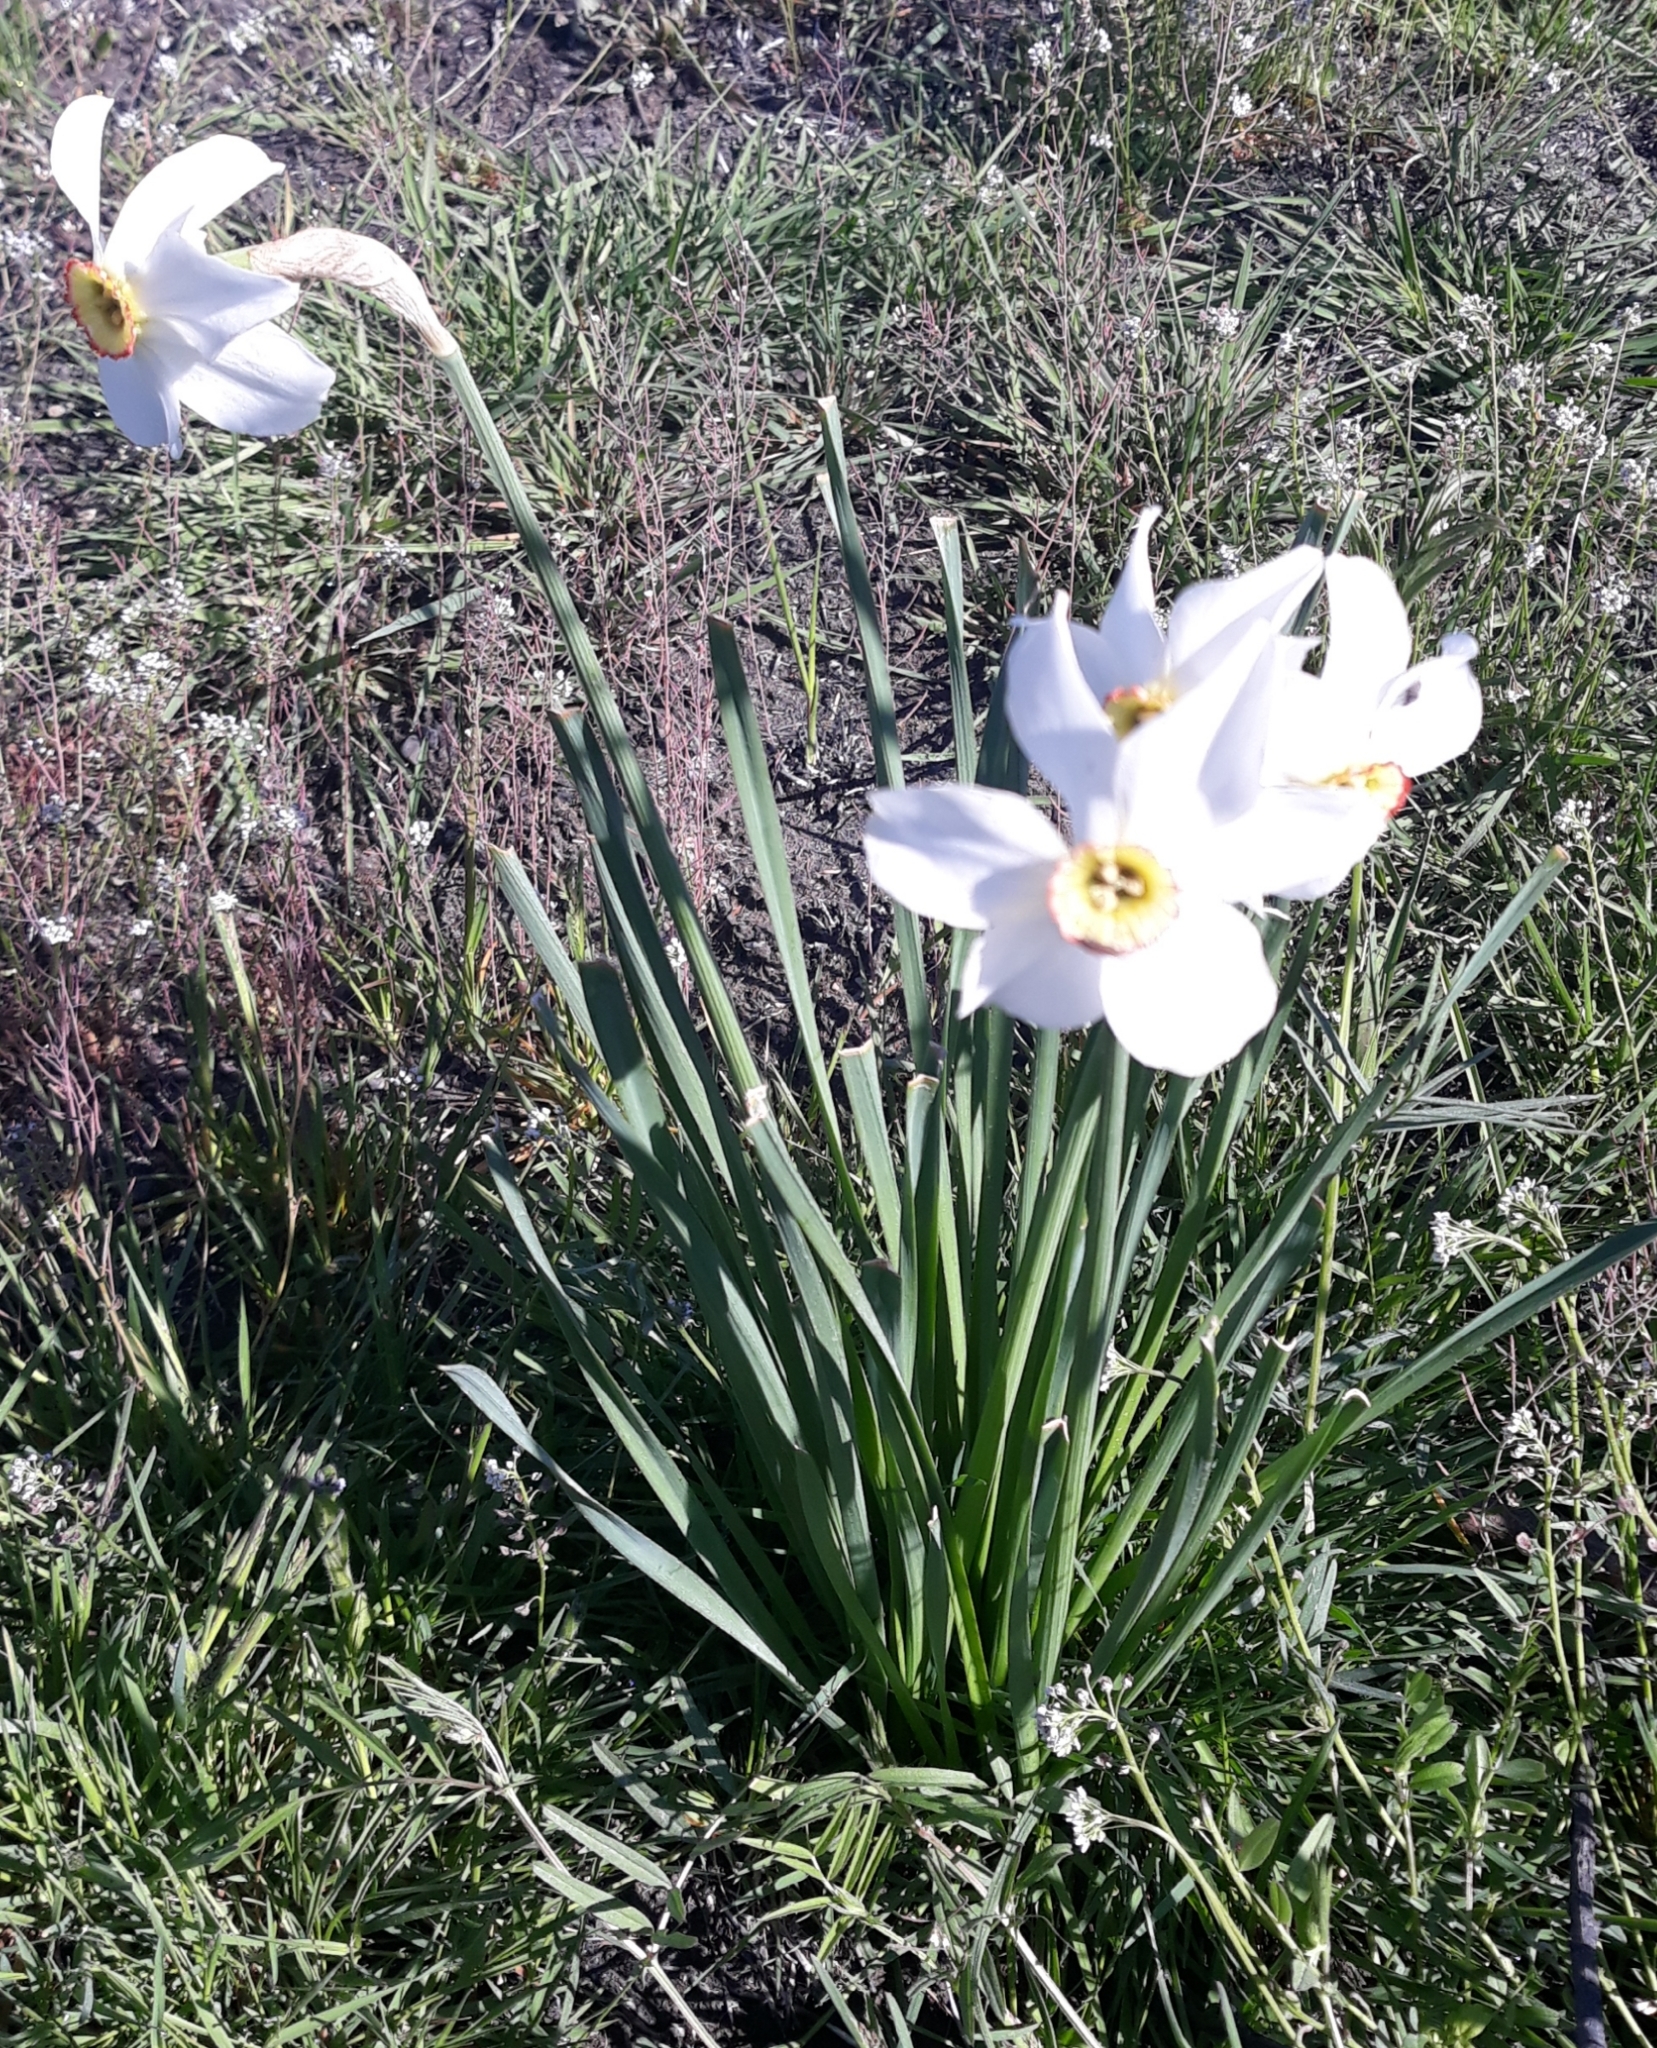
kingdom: Plantae
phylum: Tracheophyta
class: Liliopsida
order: Asparagales
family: Amaryllidaceae
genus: Narcissus
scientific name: Narcissus poeticus
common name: Pheasant's-eye daffodil
